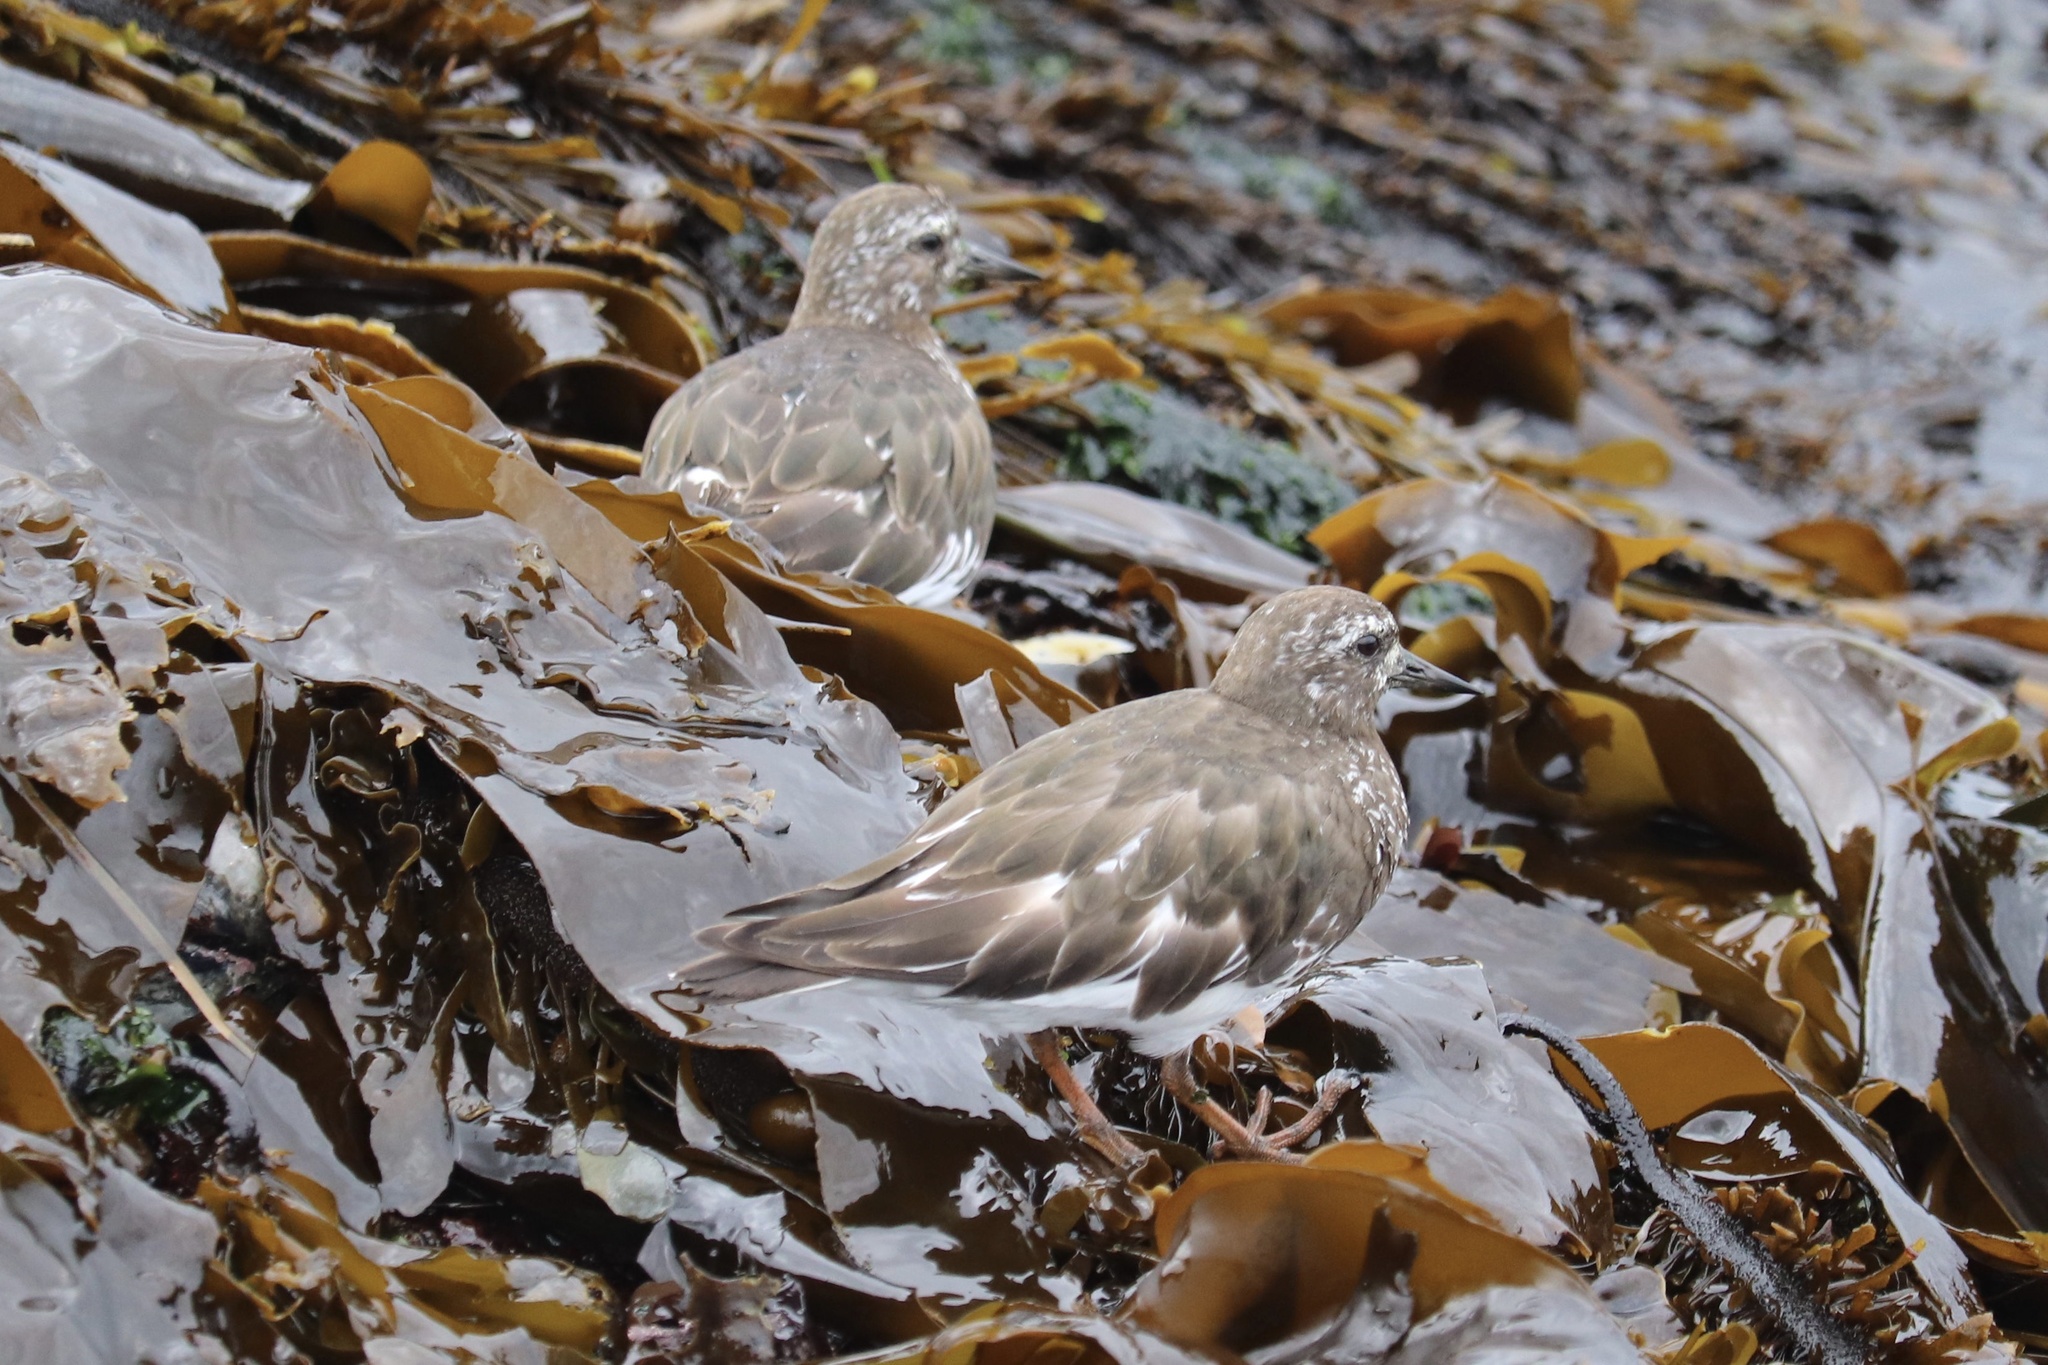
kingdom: Animalia
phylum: Chordata
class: Aves
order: Charadriiformes
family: Scolopacidae
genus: Arenaria
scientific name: Arenaria melanocephala
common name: Black turnstone
